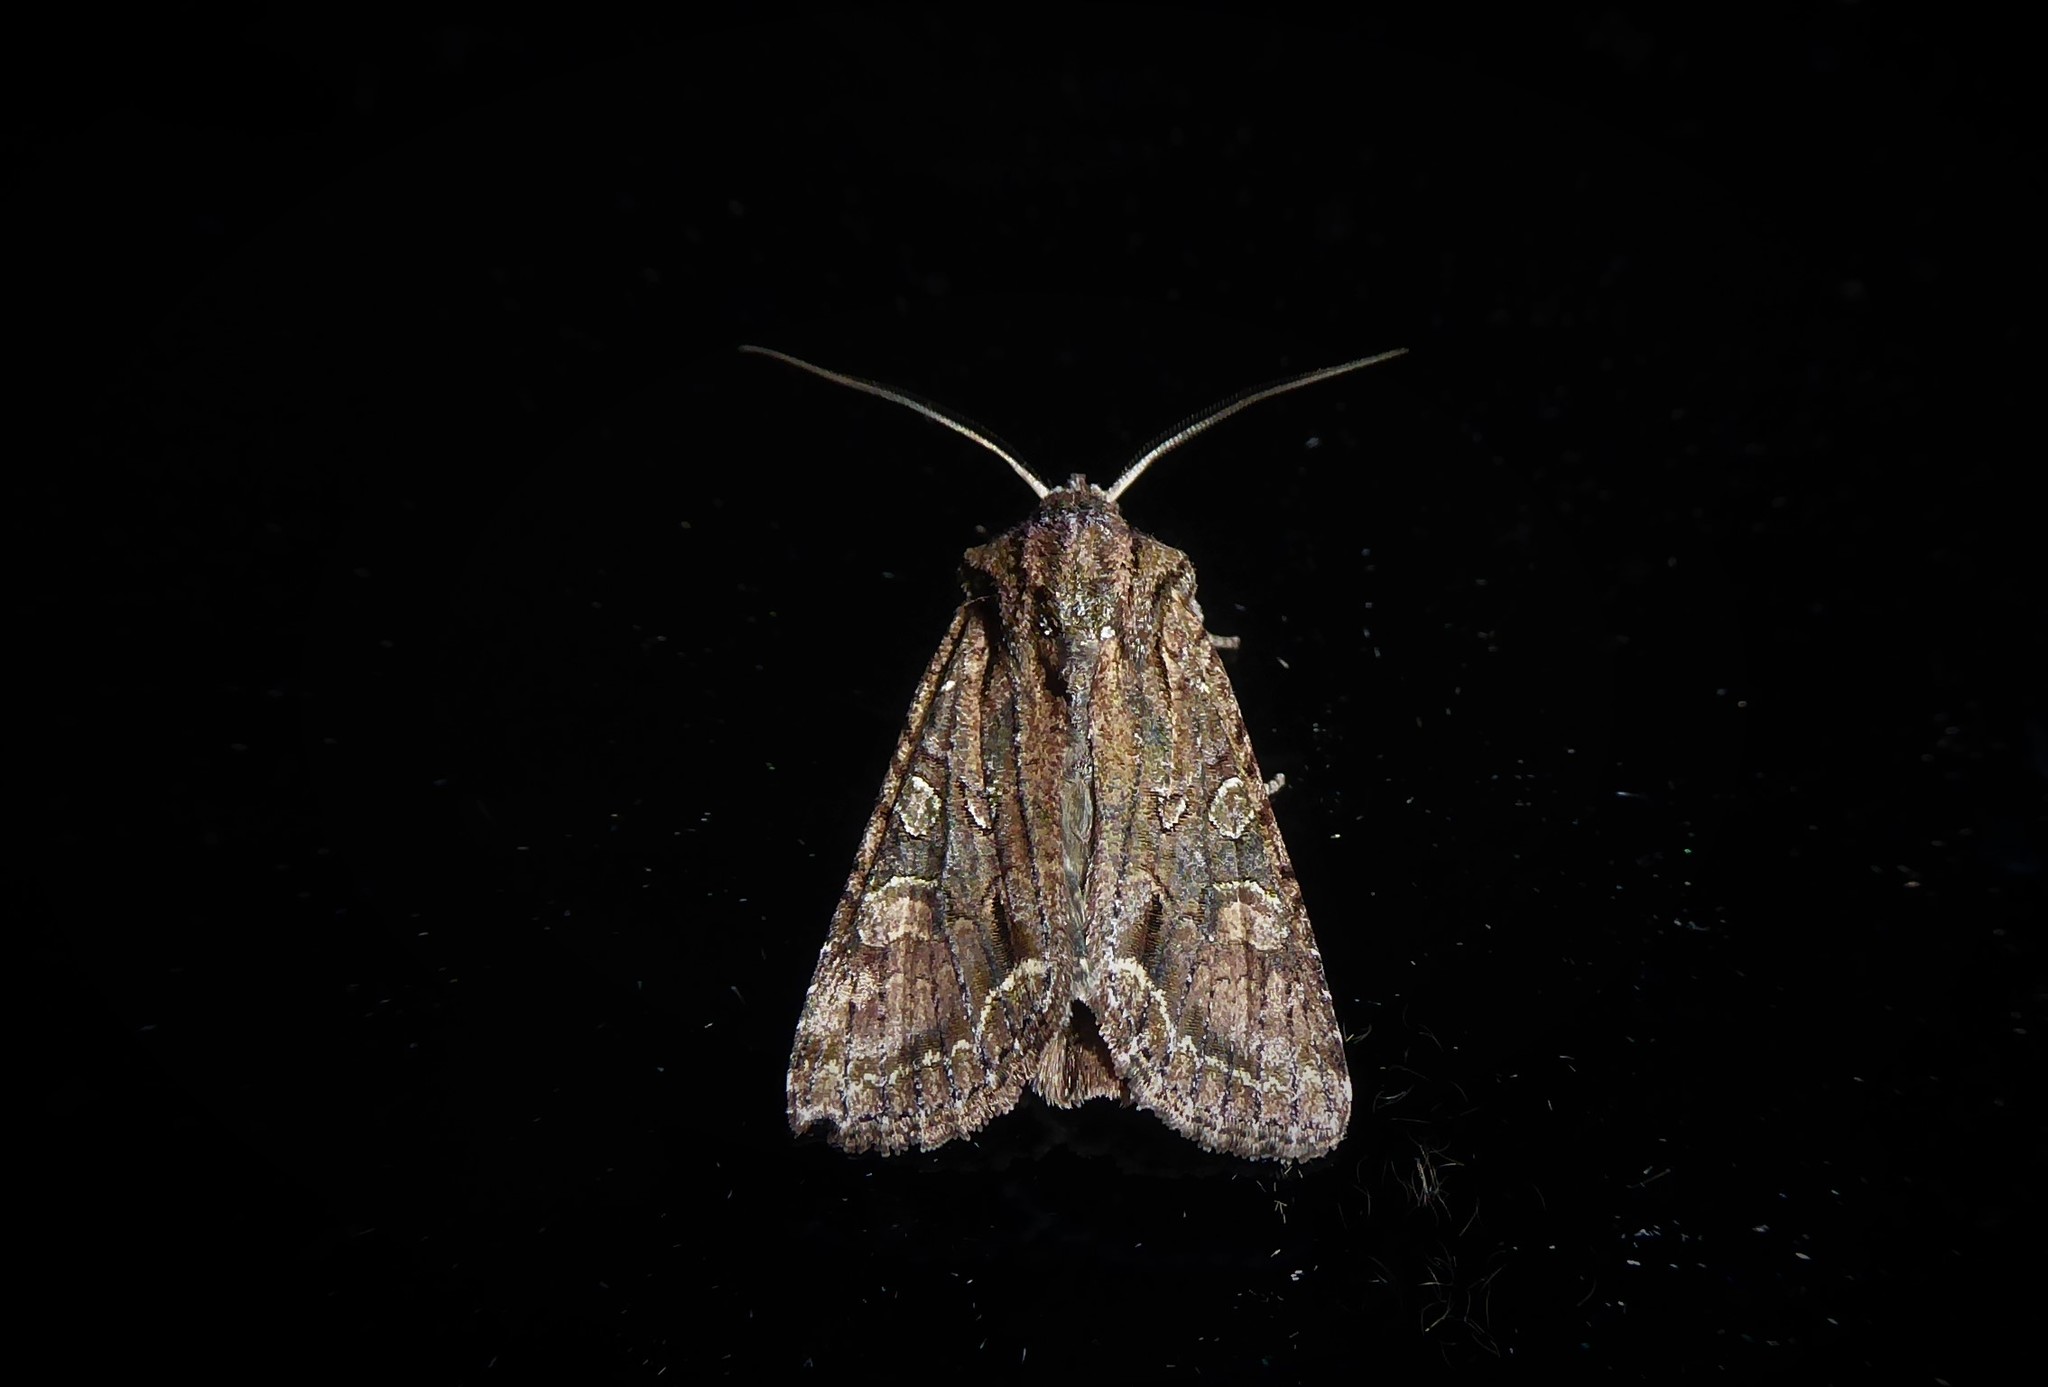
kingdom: Animalia
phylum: Arthropoda
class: Insecta
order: Lepidoptera
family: Noctuidae
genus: Ichneutica
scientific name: Ichneutica mutans
